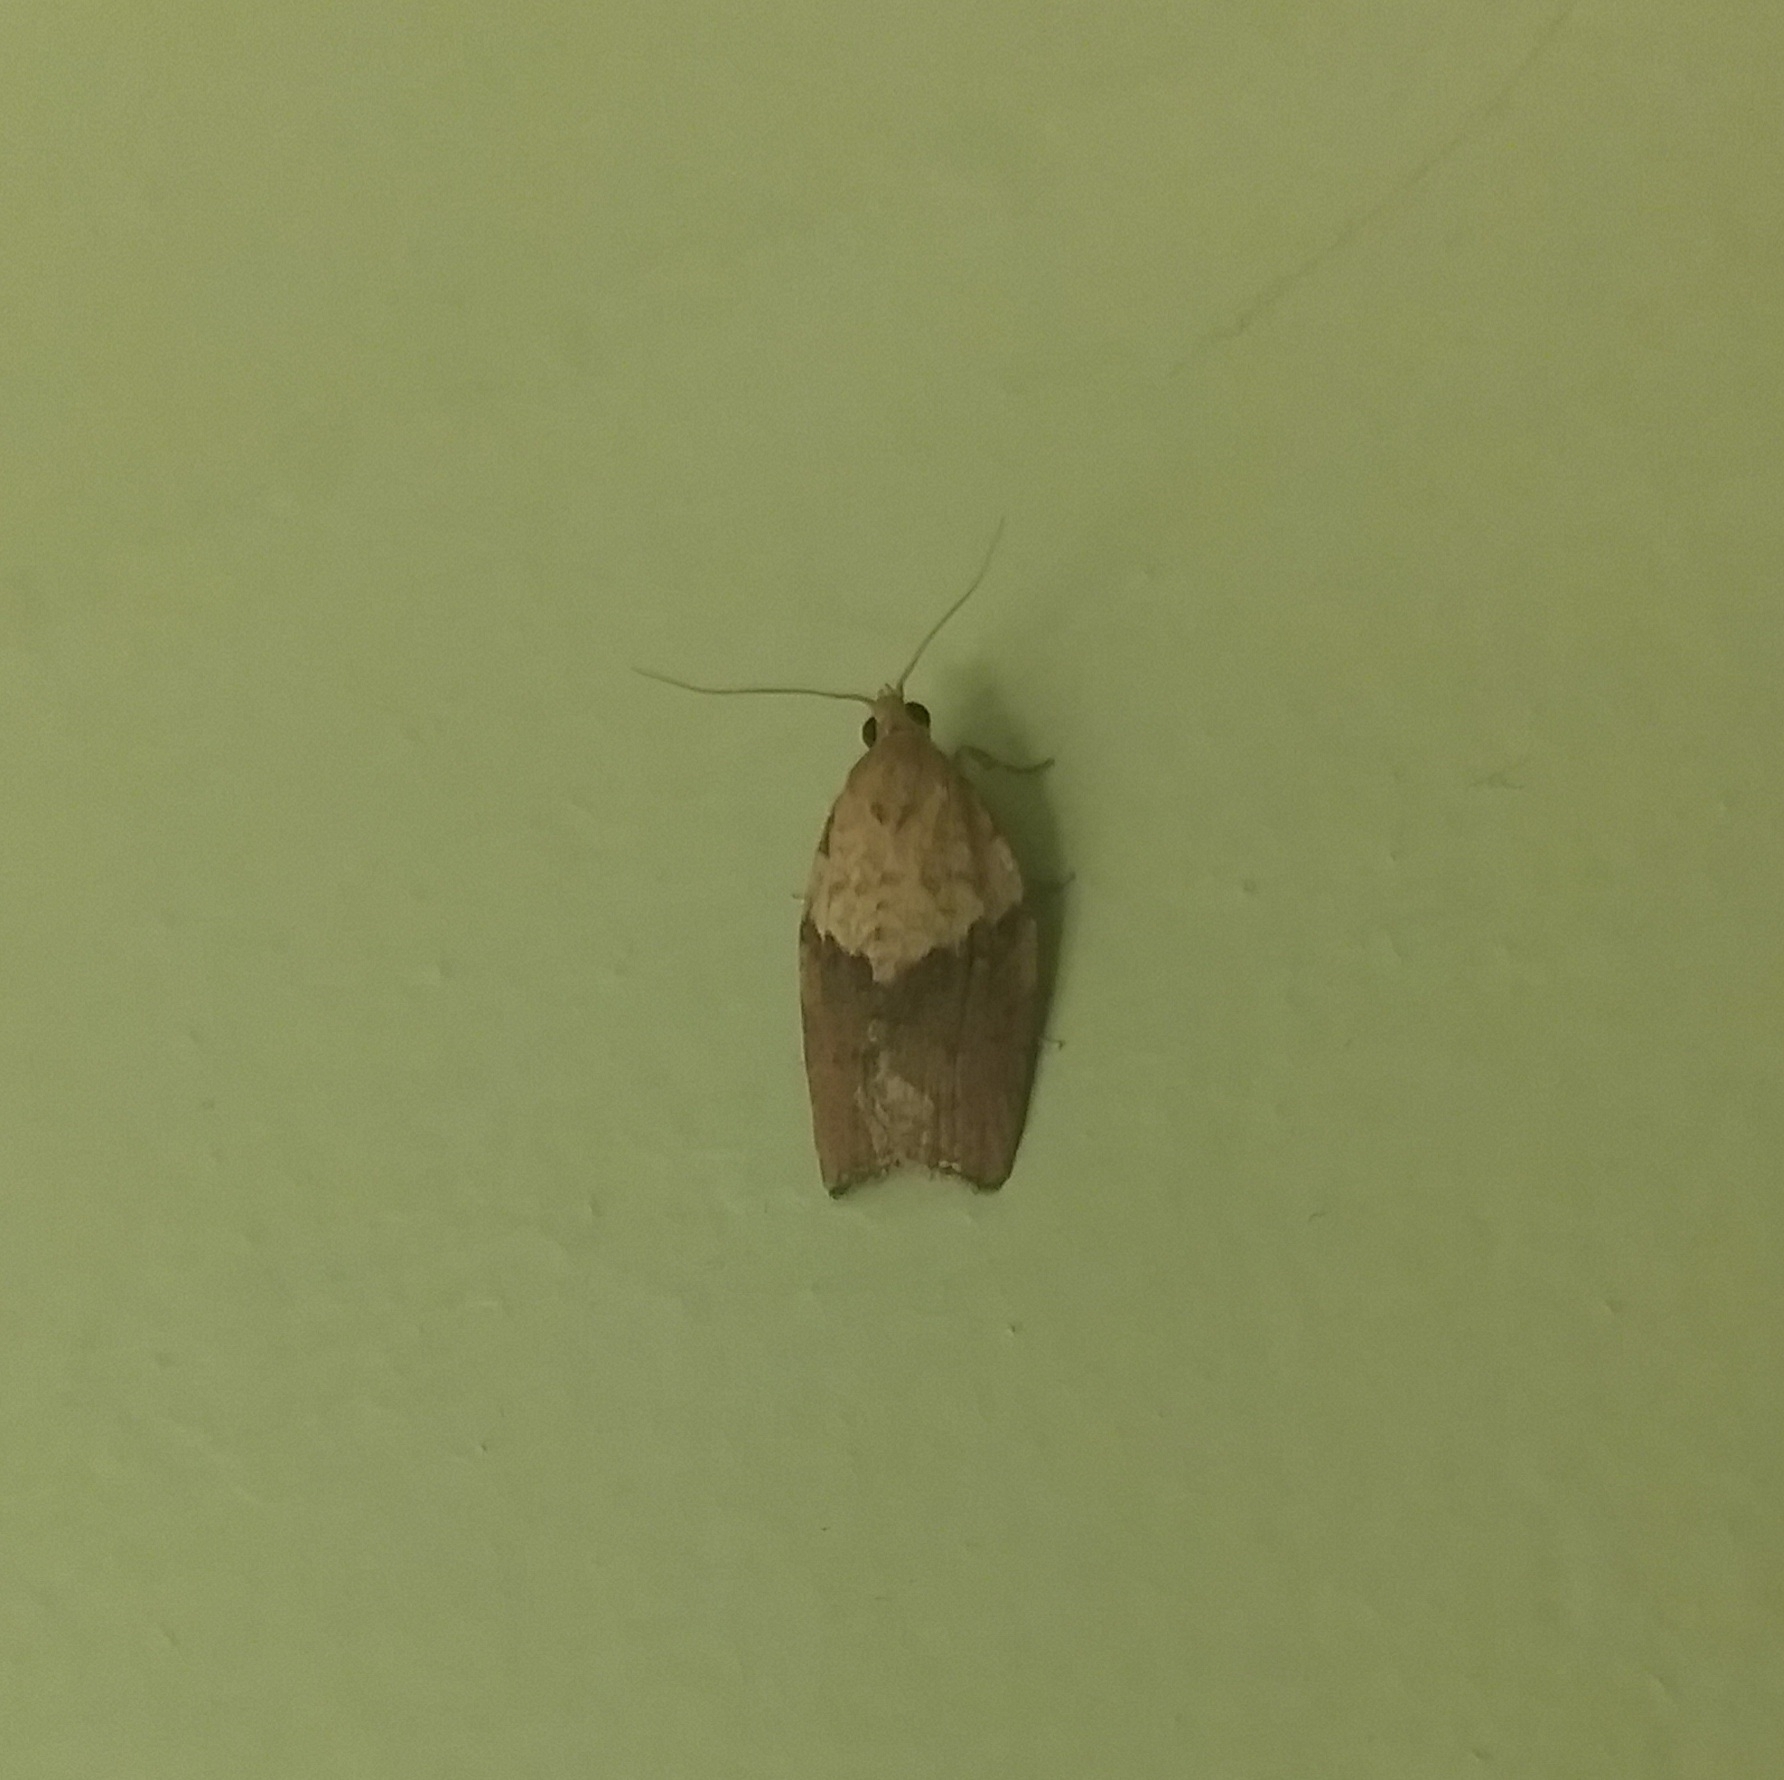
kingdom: Animalia
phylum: Arthropoda
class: Insecta
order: Lepidoptera
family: Tortricidae
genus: Epiphyas
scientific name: Epiphyas postvittana
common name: Light brown apple moth
